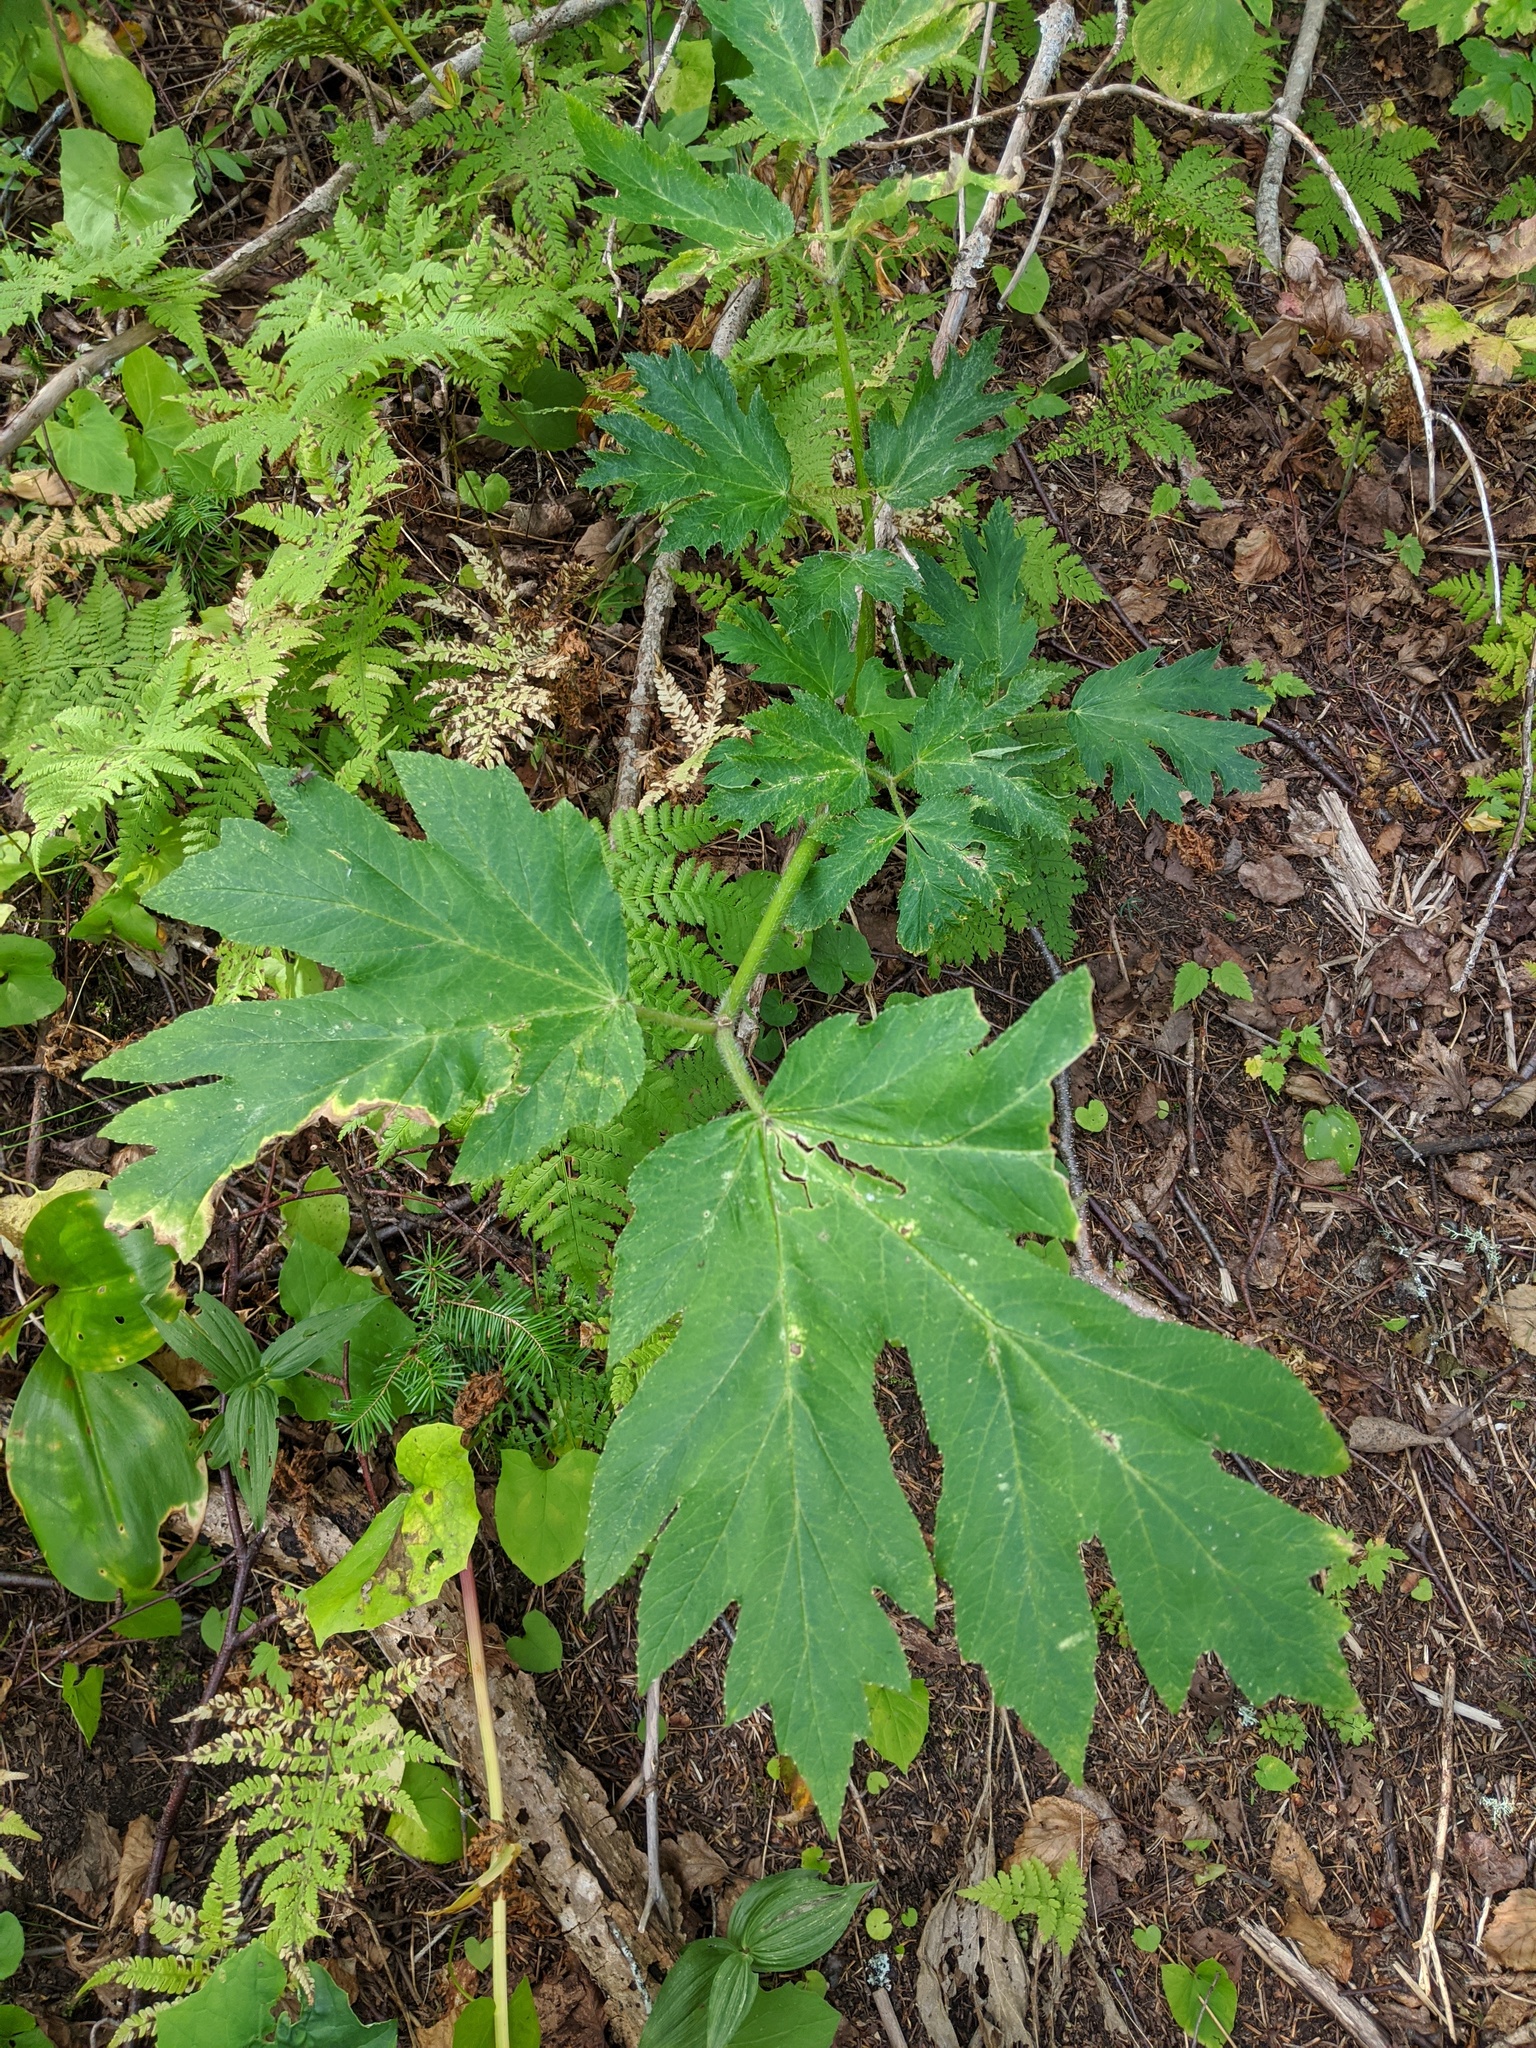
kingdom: Plantae
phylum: Tracheophyta
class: Magnoliopsida
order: Apiales
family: Apiaceae
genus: Heracleum
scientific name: Heracleum maximum
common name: American cow parsnip
